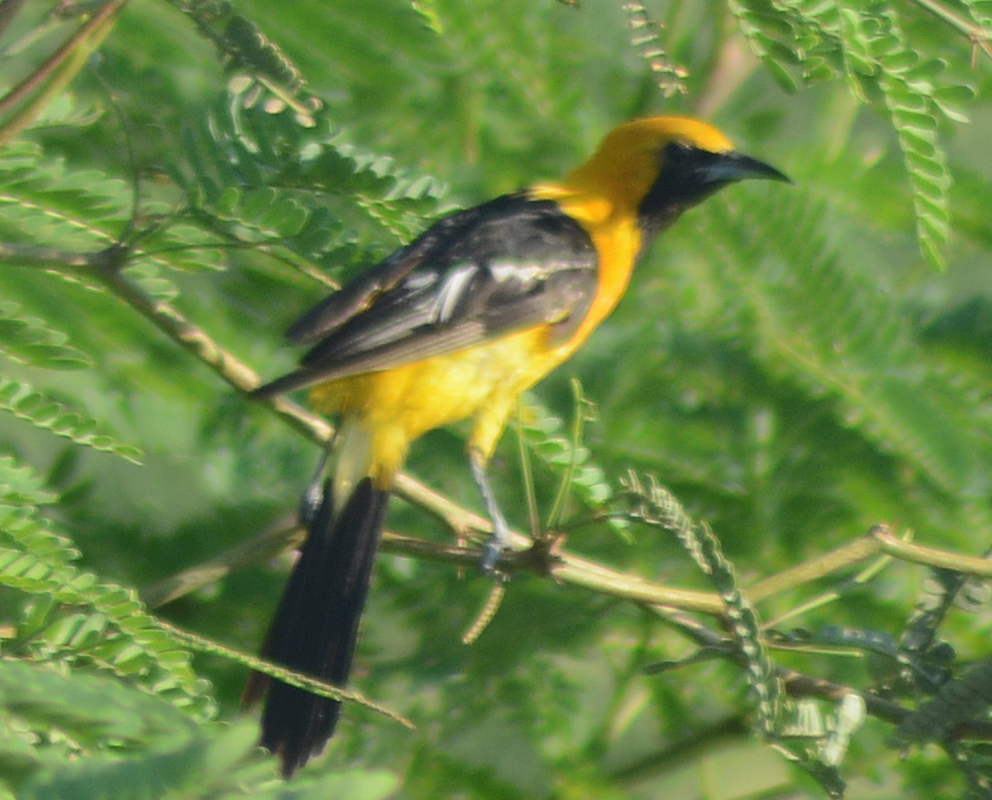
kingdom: Animalia
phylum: Chordata
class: Aves
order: Passeriformes
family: Icteridae
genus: Icterus
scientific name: Icterus cucullatus
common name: Hooded oriole
